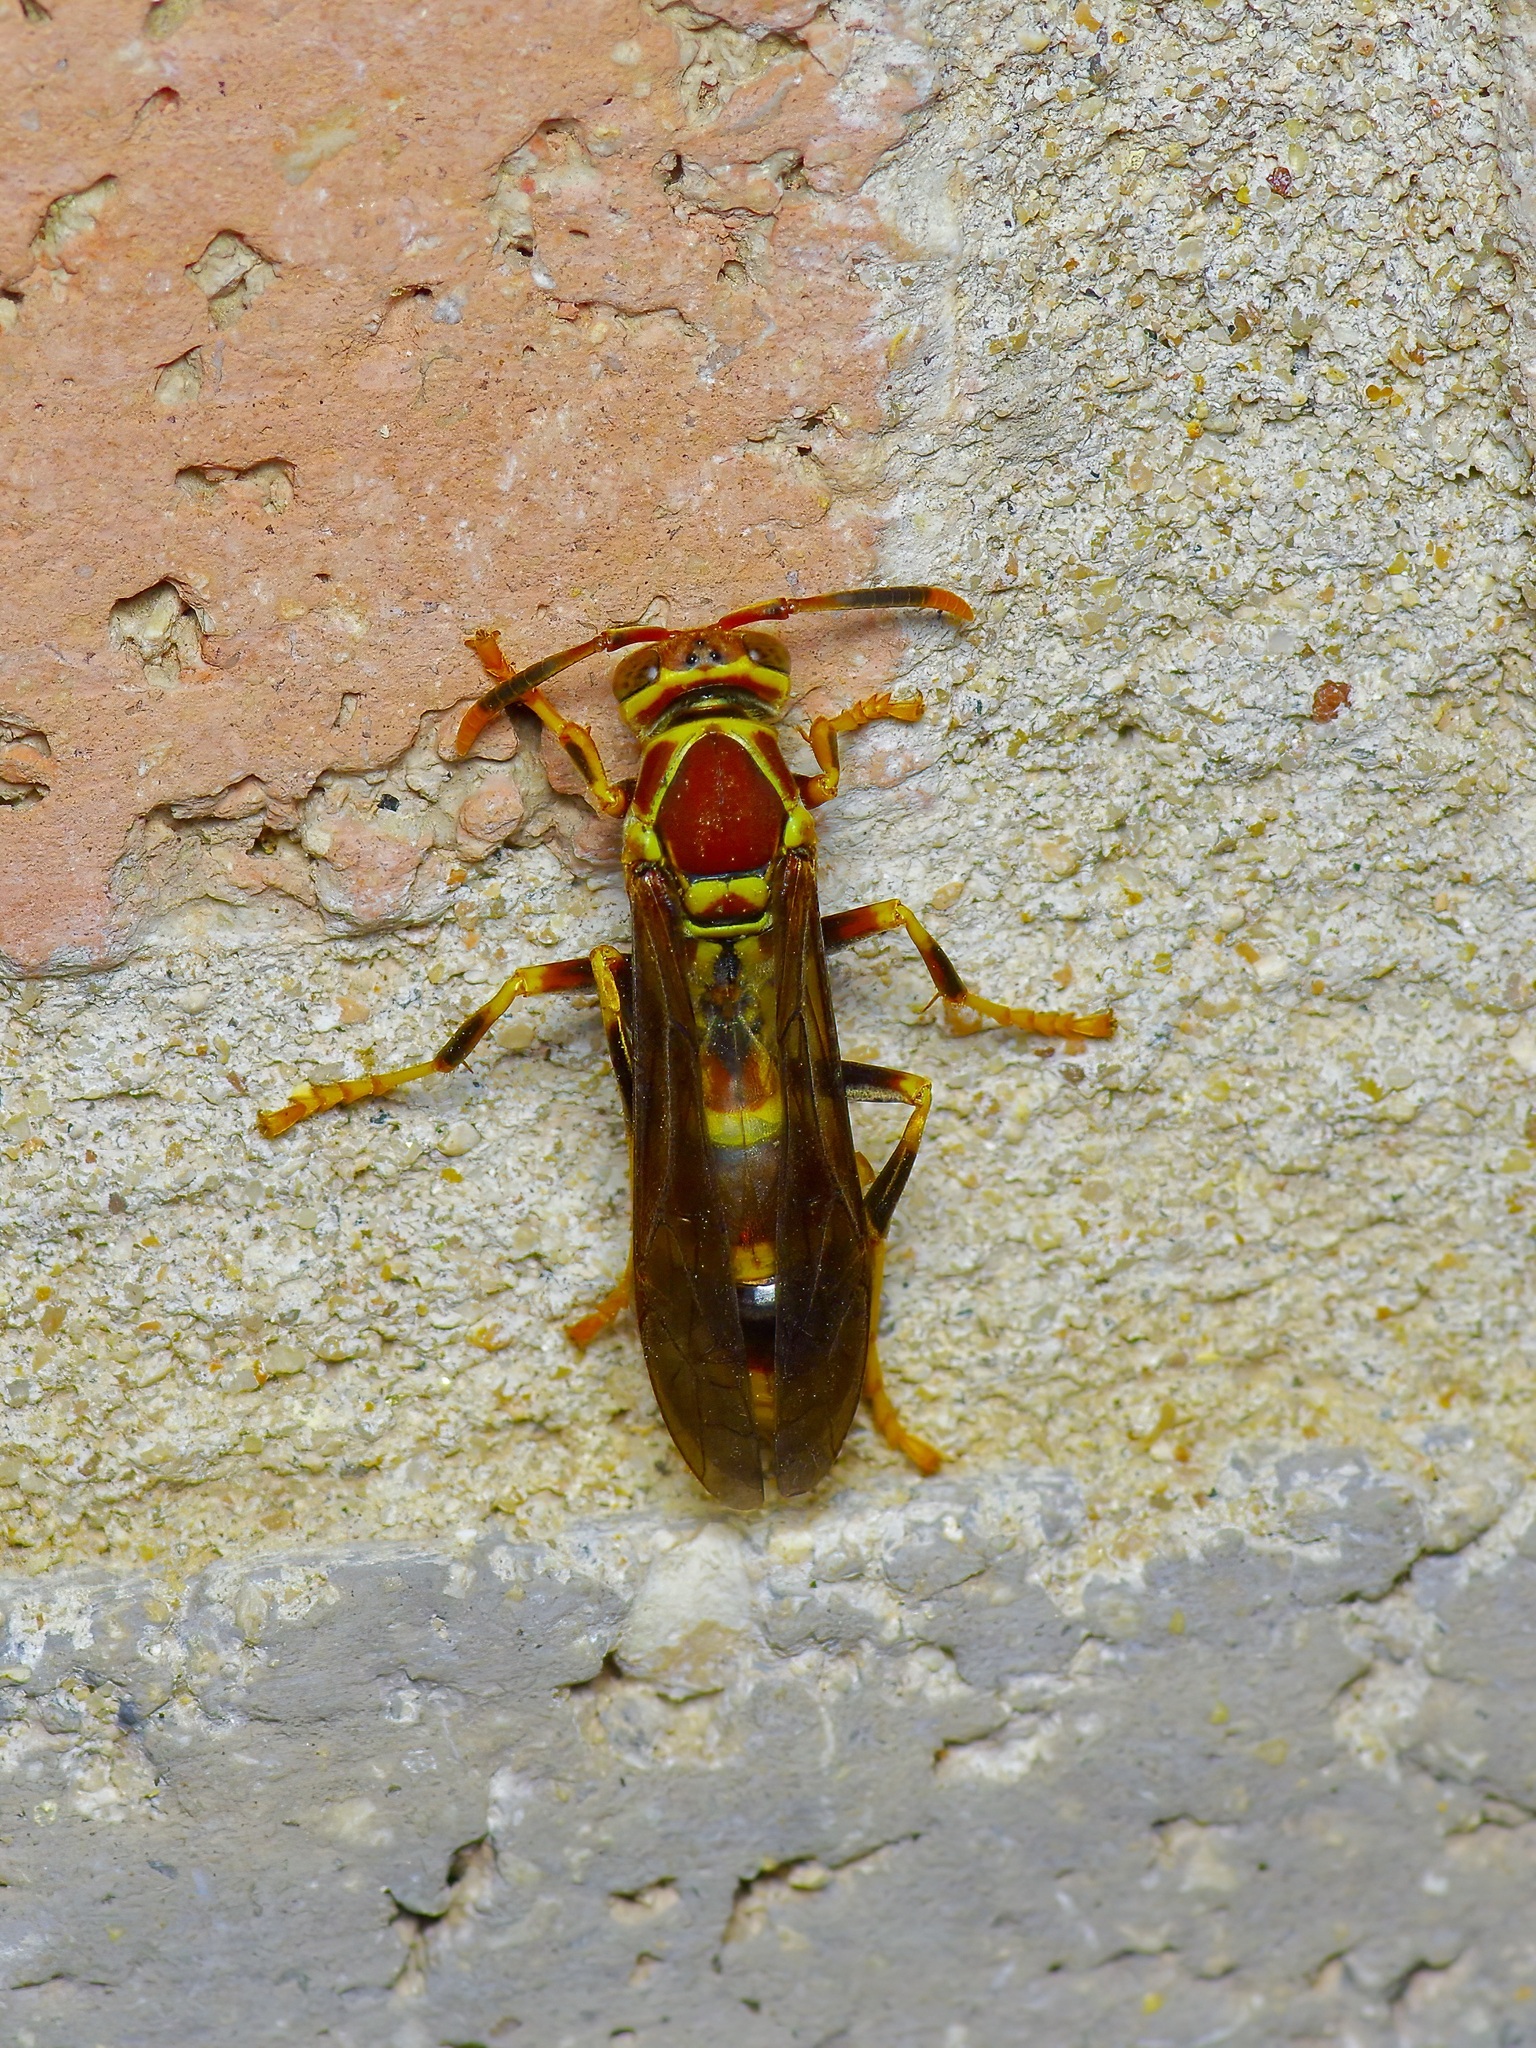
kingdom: Animalia
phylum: Arthropoda
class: Insecta
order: Hymenoptera
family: Eumenidae
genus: Polistes
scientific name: Polistes exclamans
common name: Paper wasp
